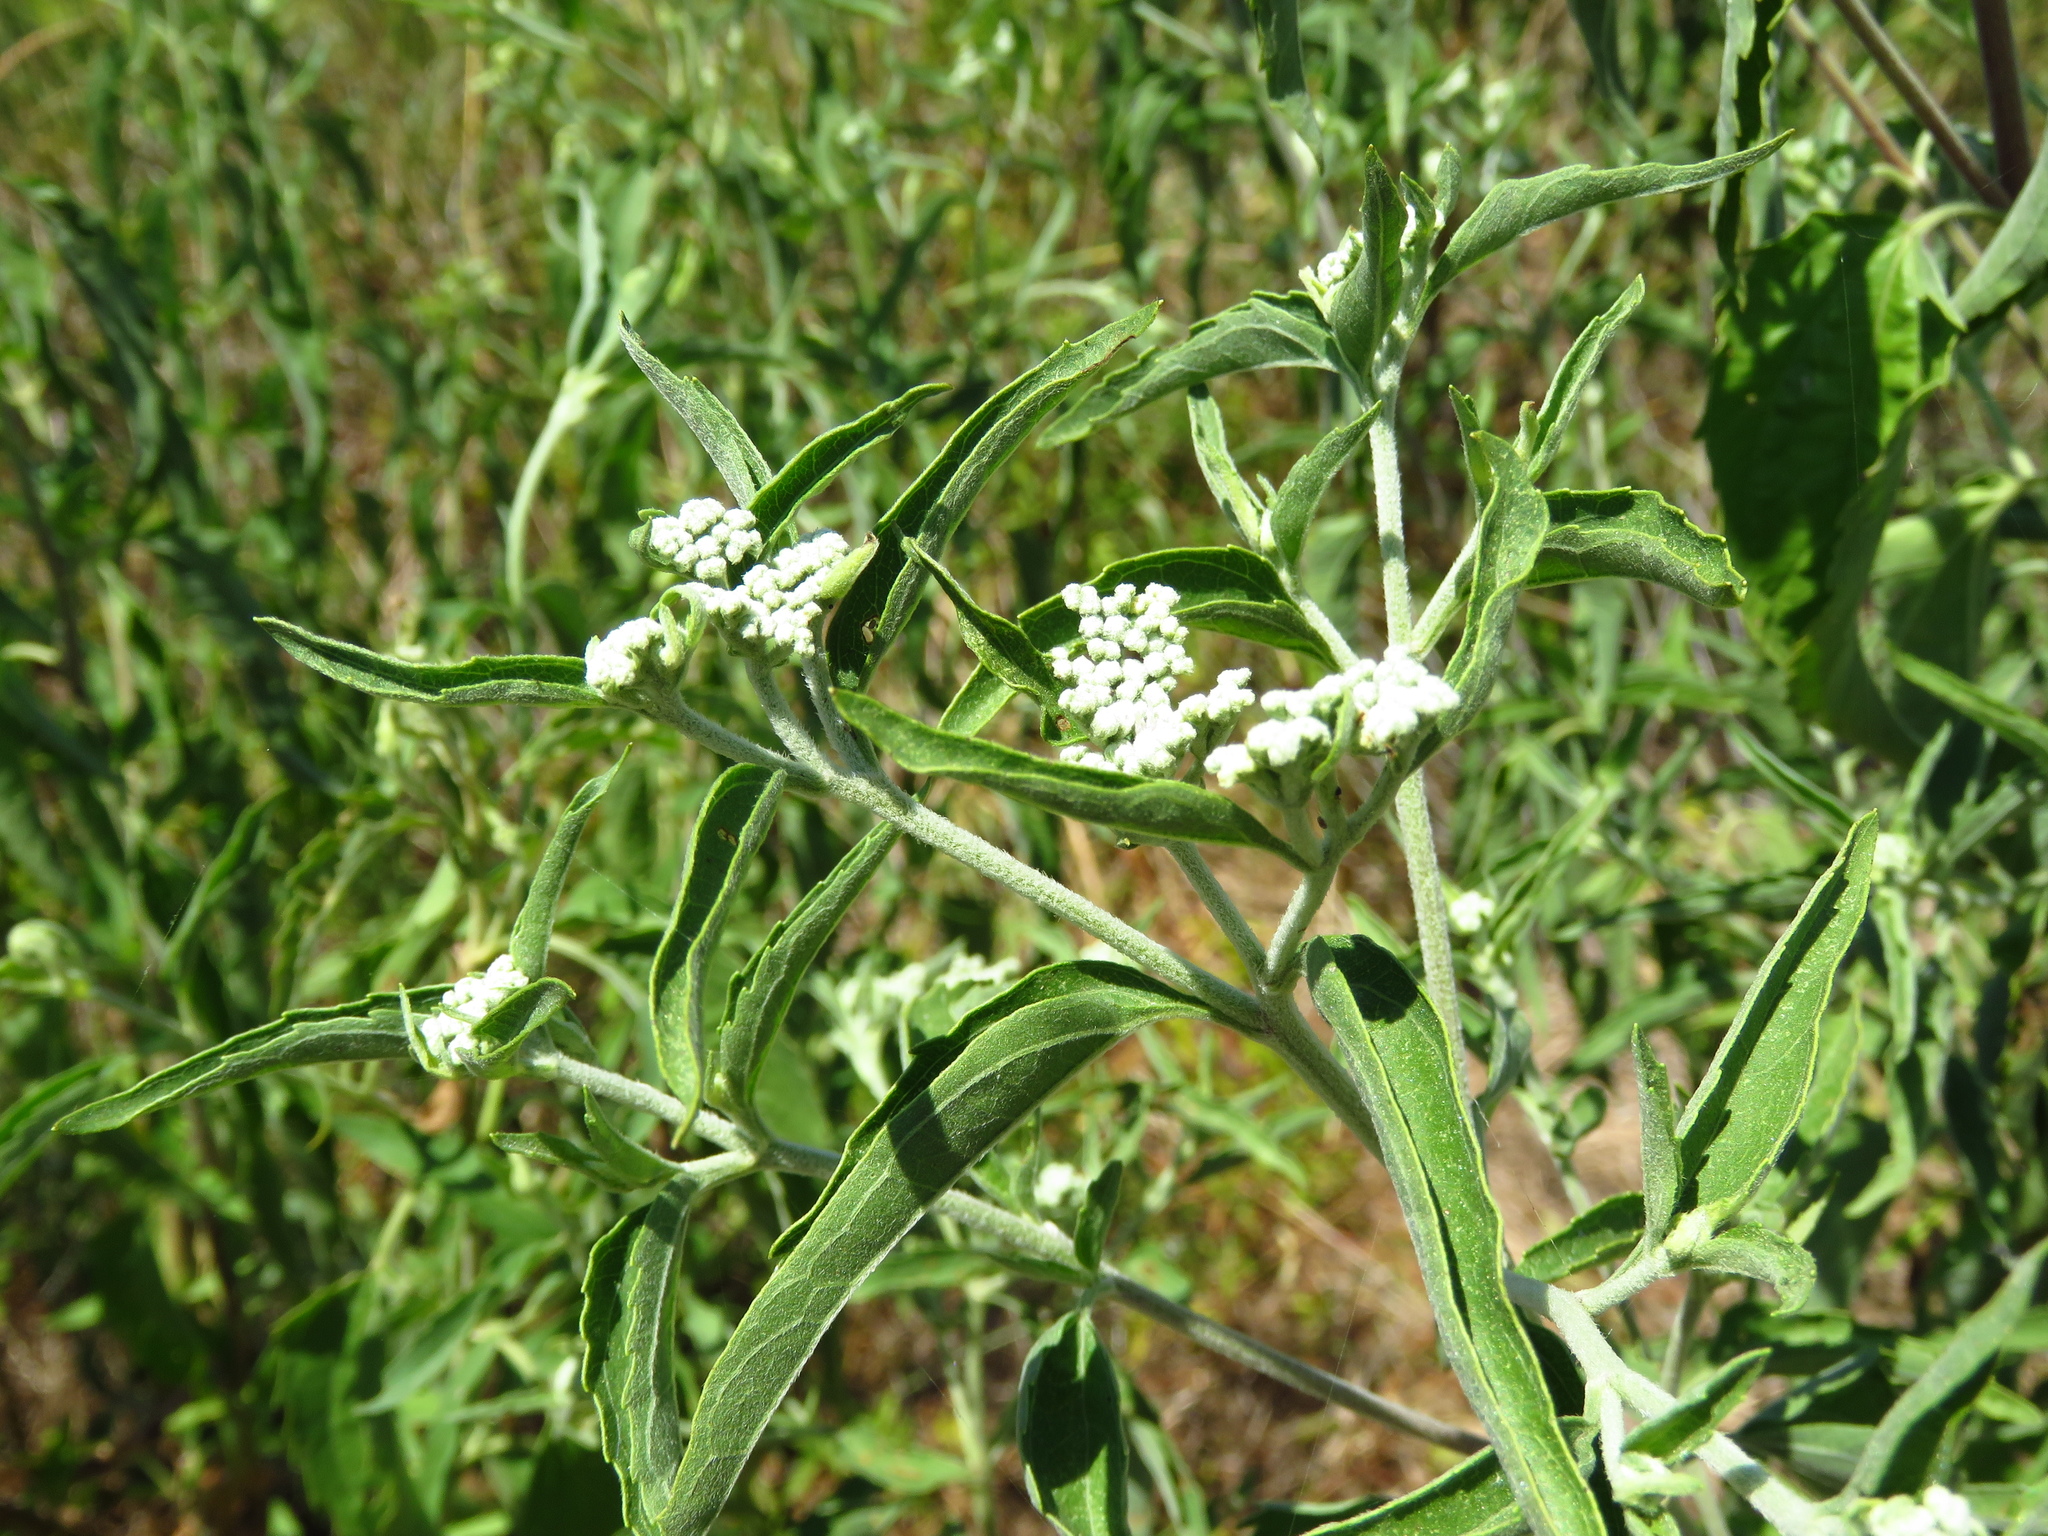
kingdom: Plantae
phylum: Tracheophyta
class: Magnoliopsida
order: Asterales
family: Asteraceae
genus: Eupatorium
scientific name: Eupatorium serotinum
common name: Late boneset
